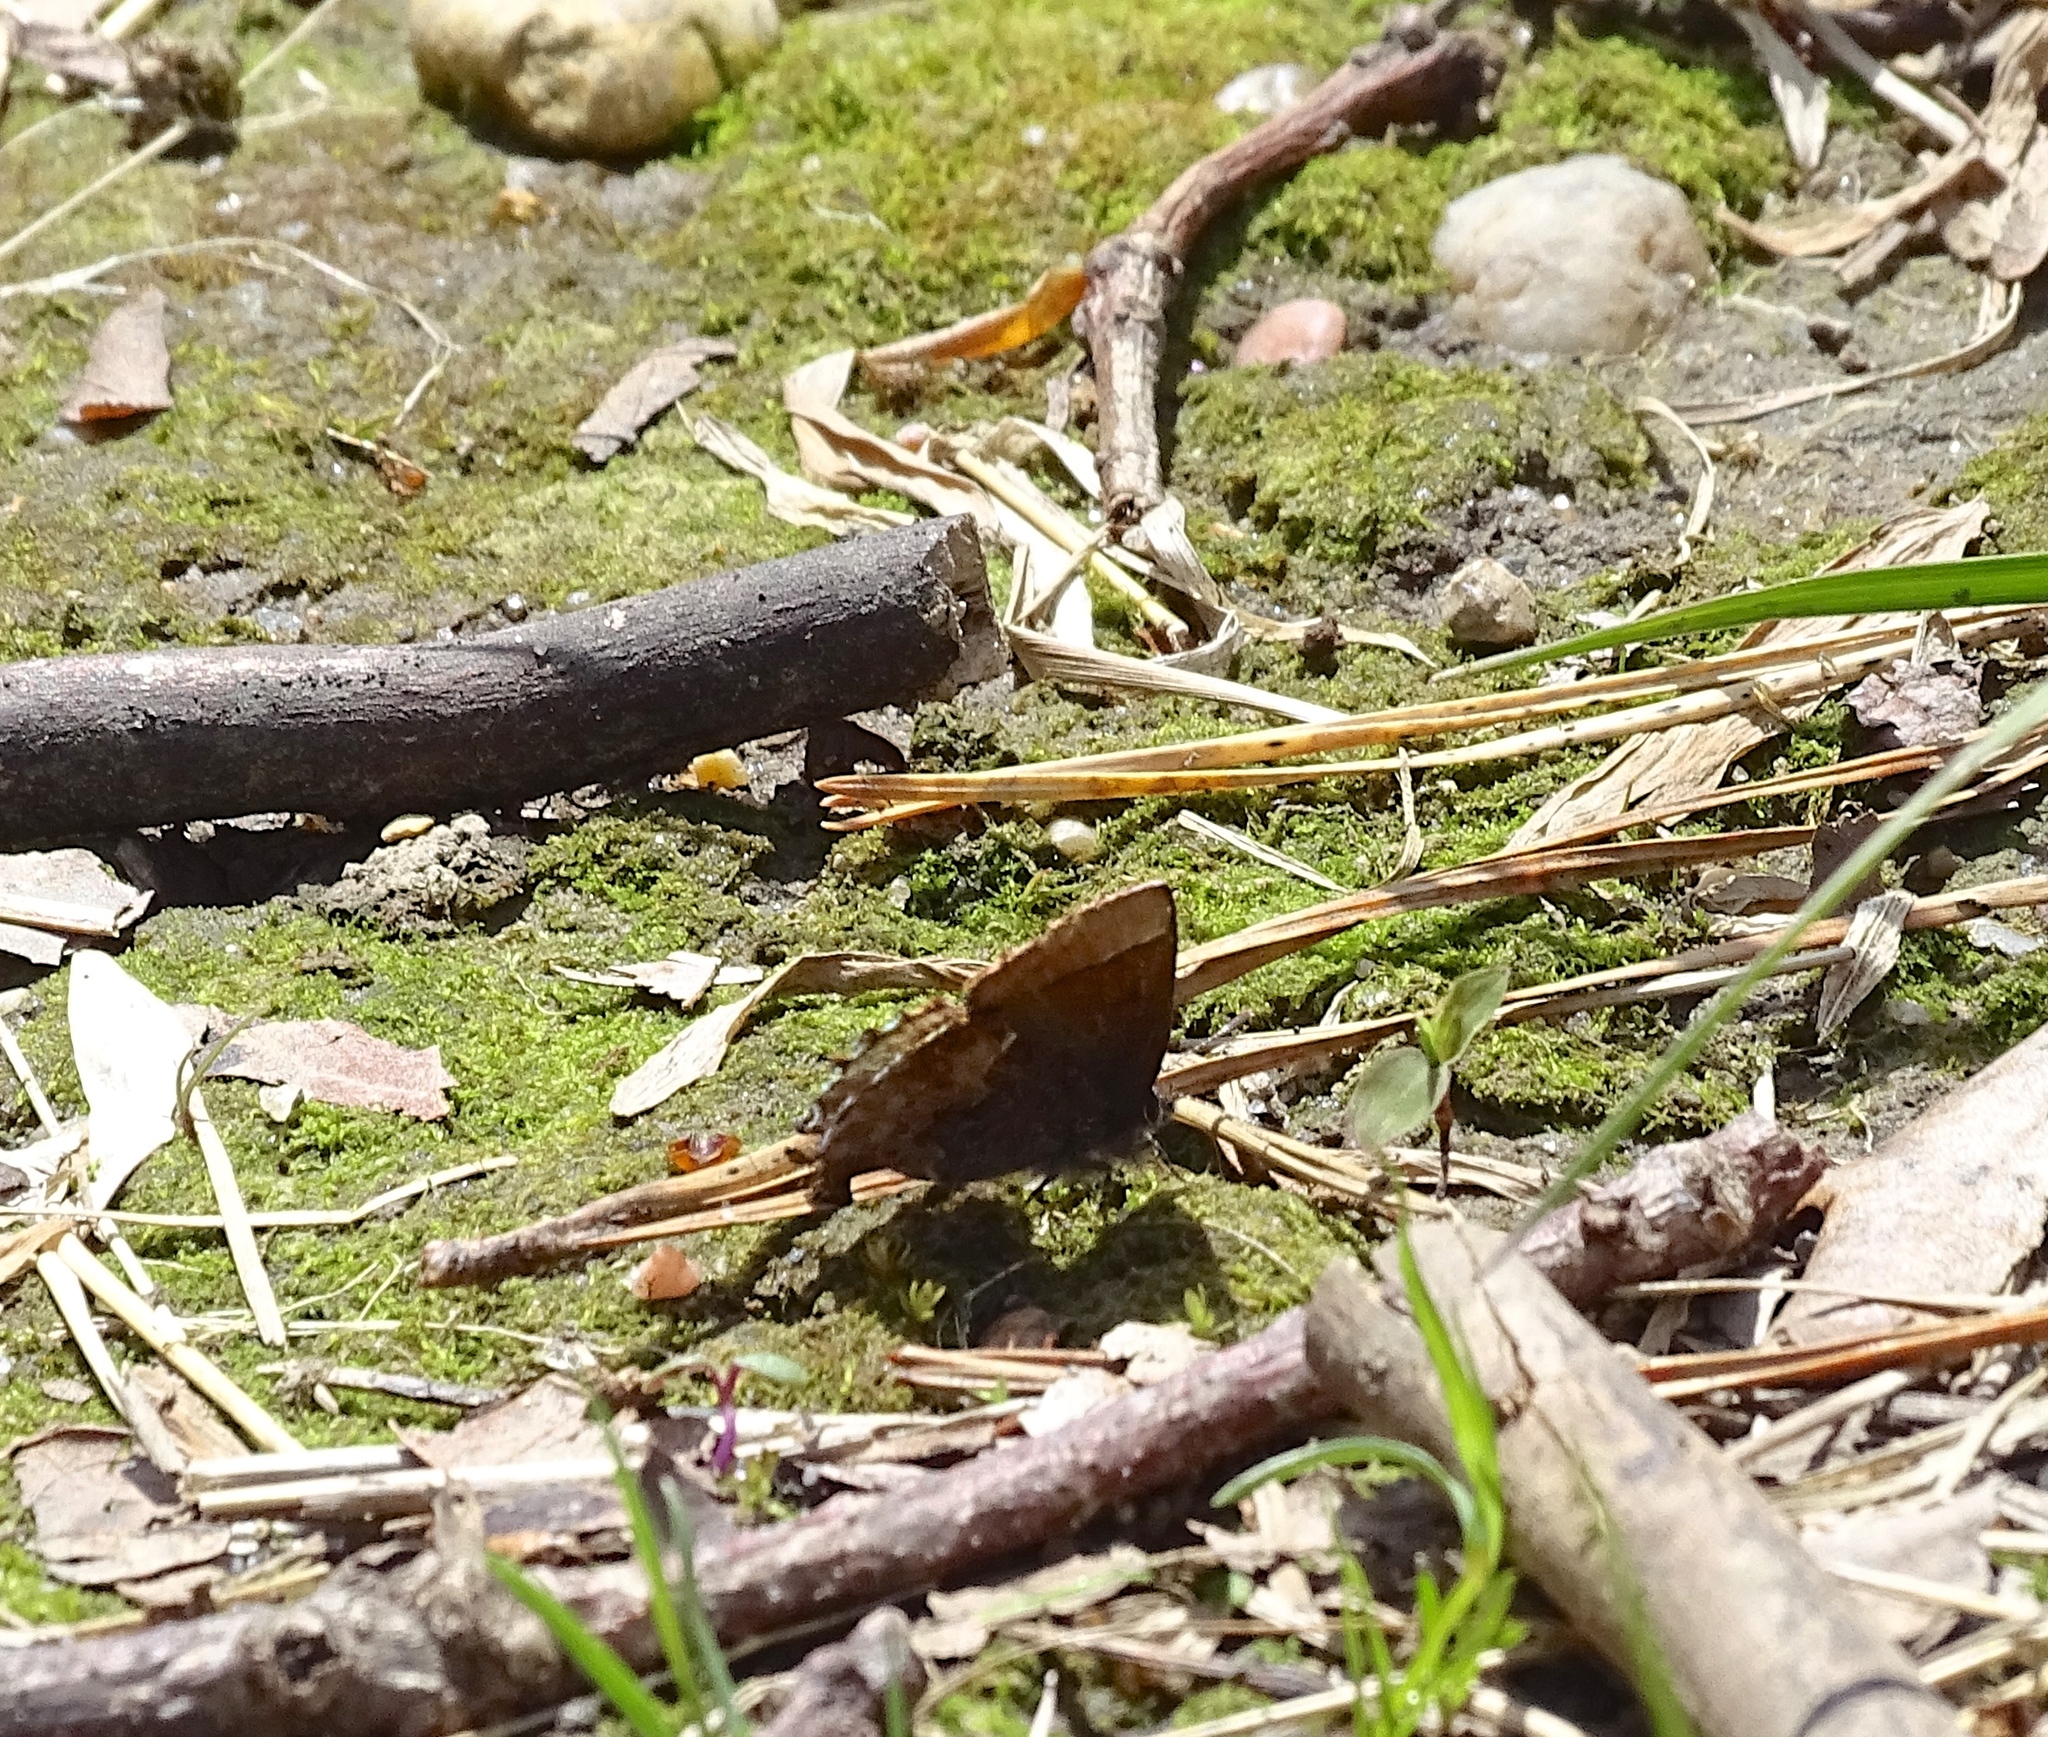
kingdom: Animalia
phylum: Arthropoda
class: Insecta
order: Lepidoptera
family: Lycaenidae
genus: Incisalia
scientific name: Incisalia henrici
